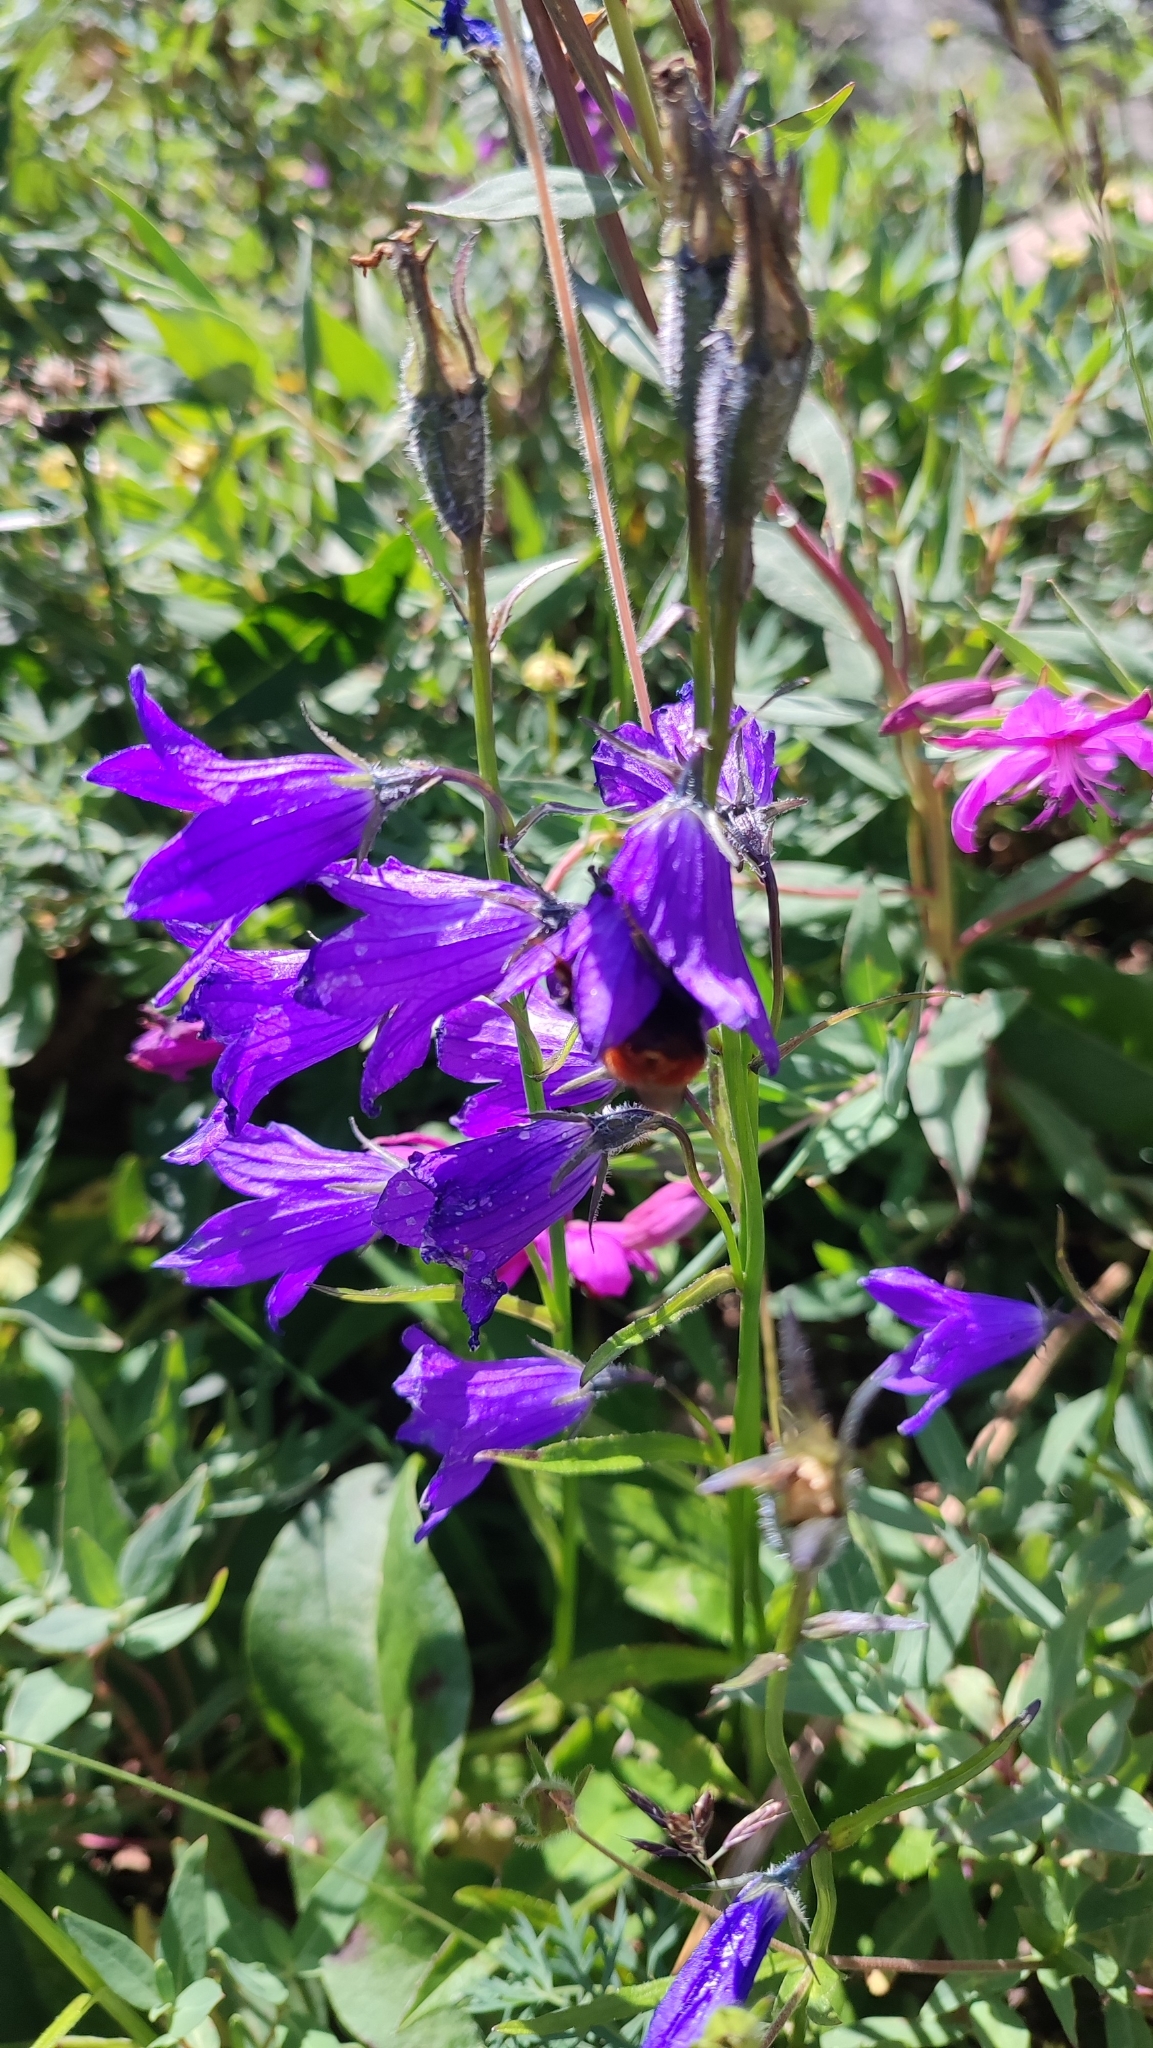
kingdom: Plantae
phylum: Tracheophyta
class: Magnoliopsida
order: Asterales
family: Campanulaceae
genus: Campanula
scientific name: Campanula stevenii
